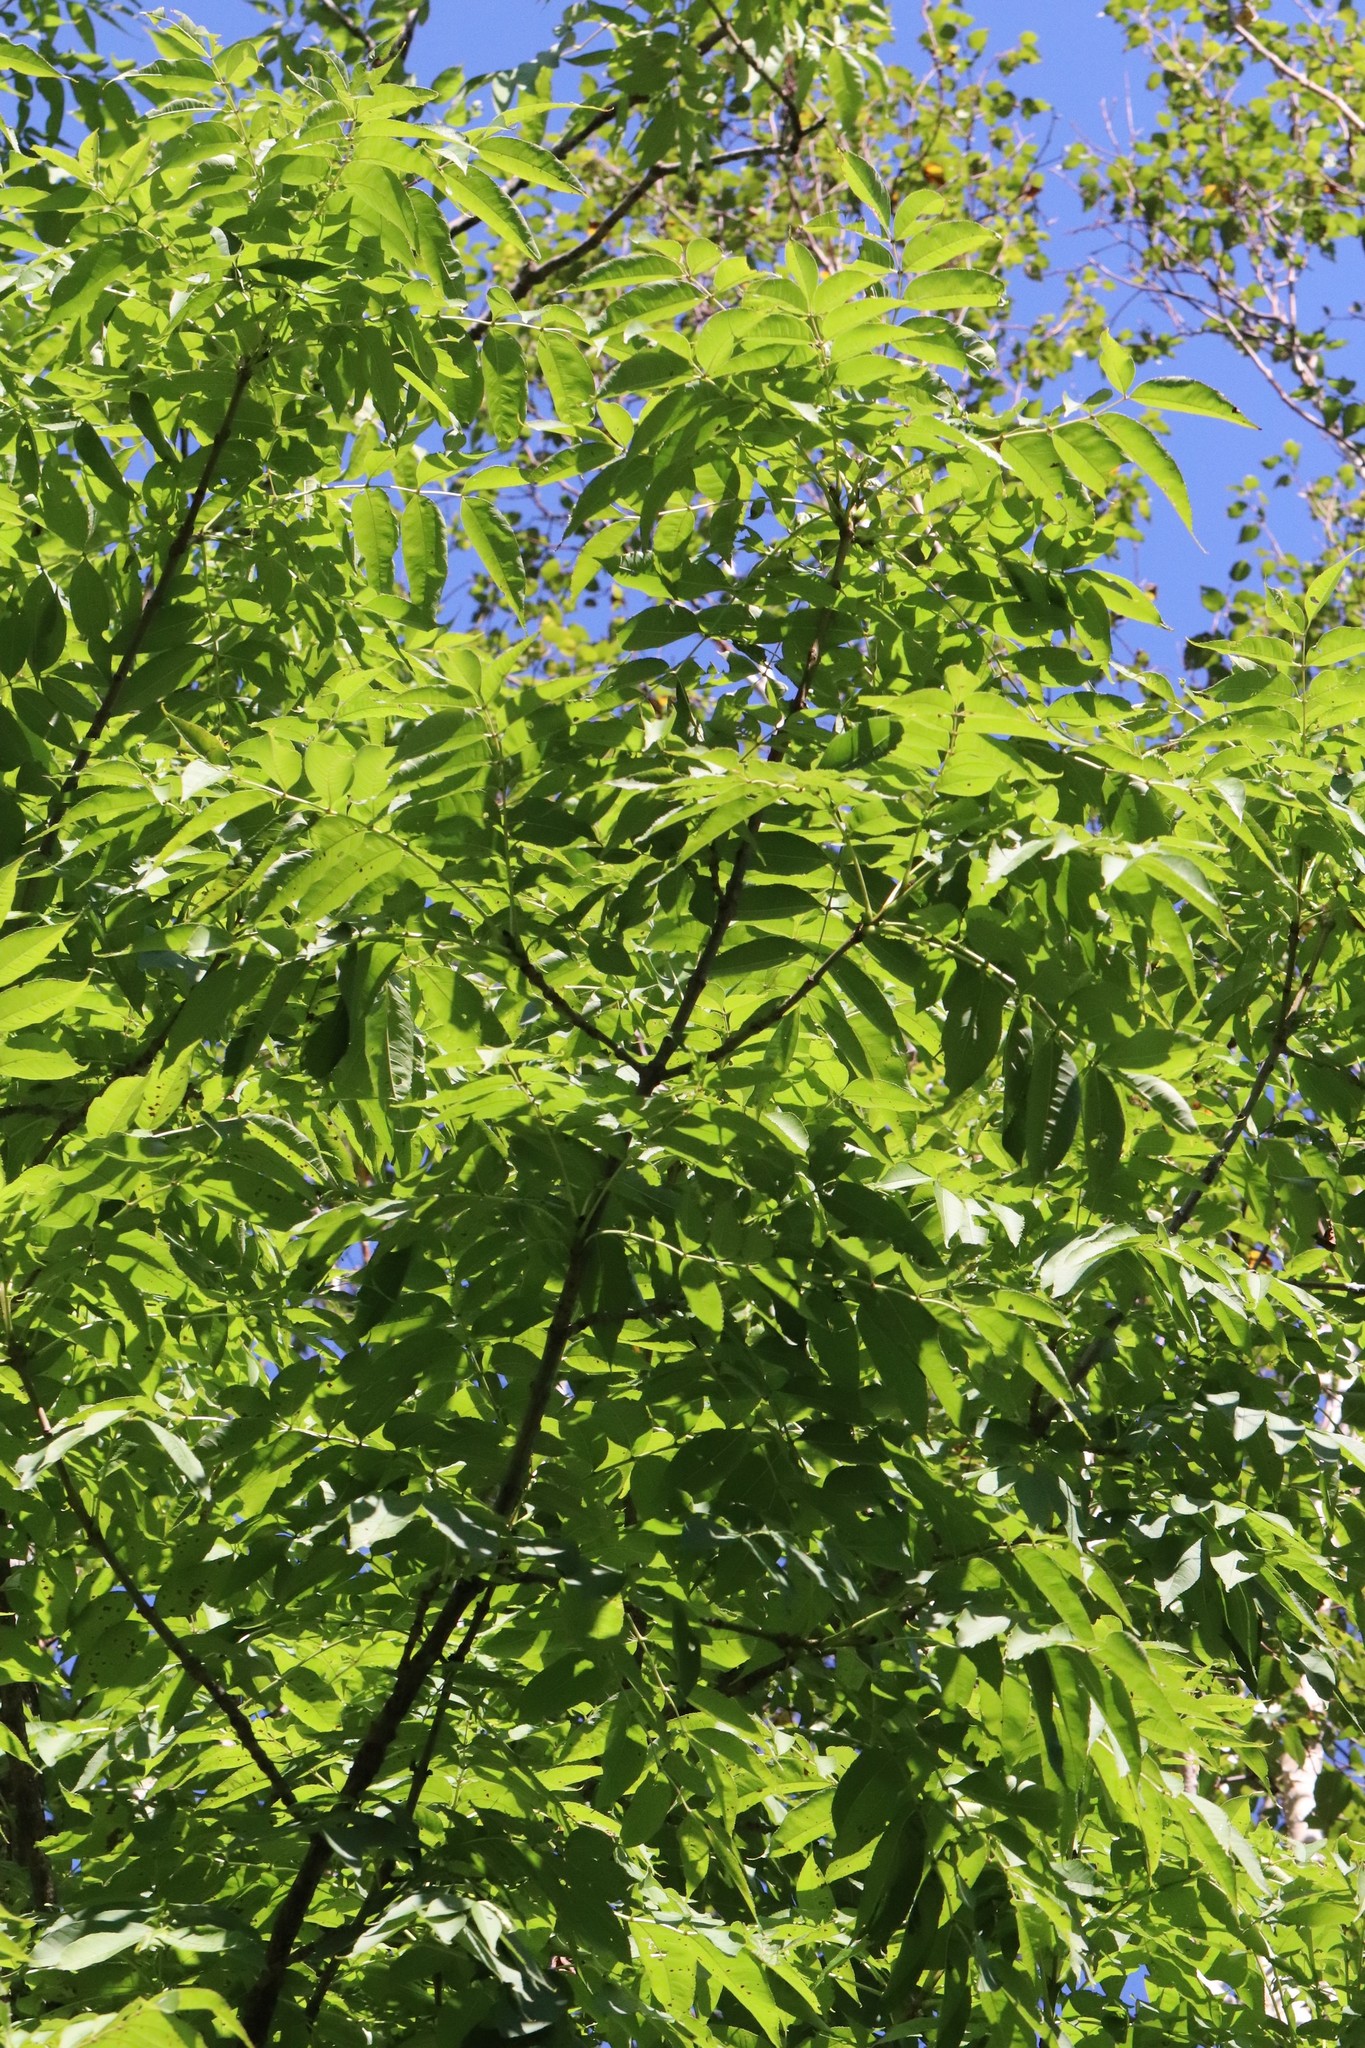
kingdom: Plantae
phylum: Tracheophyta
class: Magnoliopsida
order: Lamiales
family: Oleaceae
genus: Fraxinus
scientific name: Fraxinus mandshurica
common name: Manchurian ash
